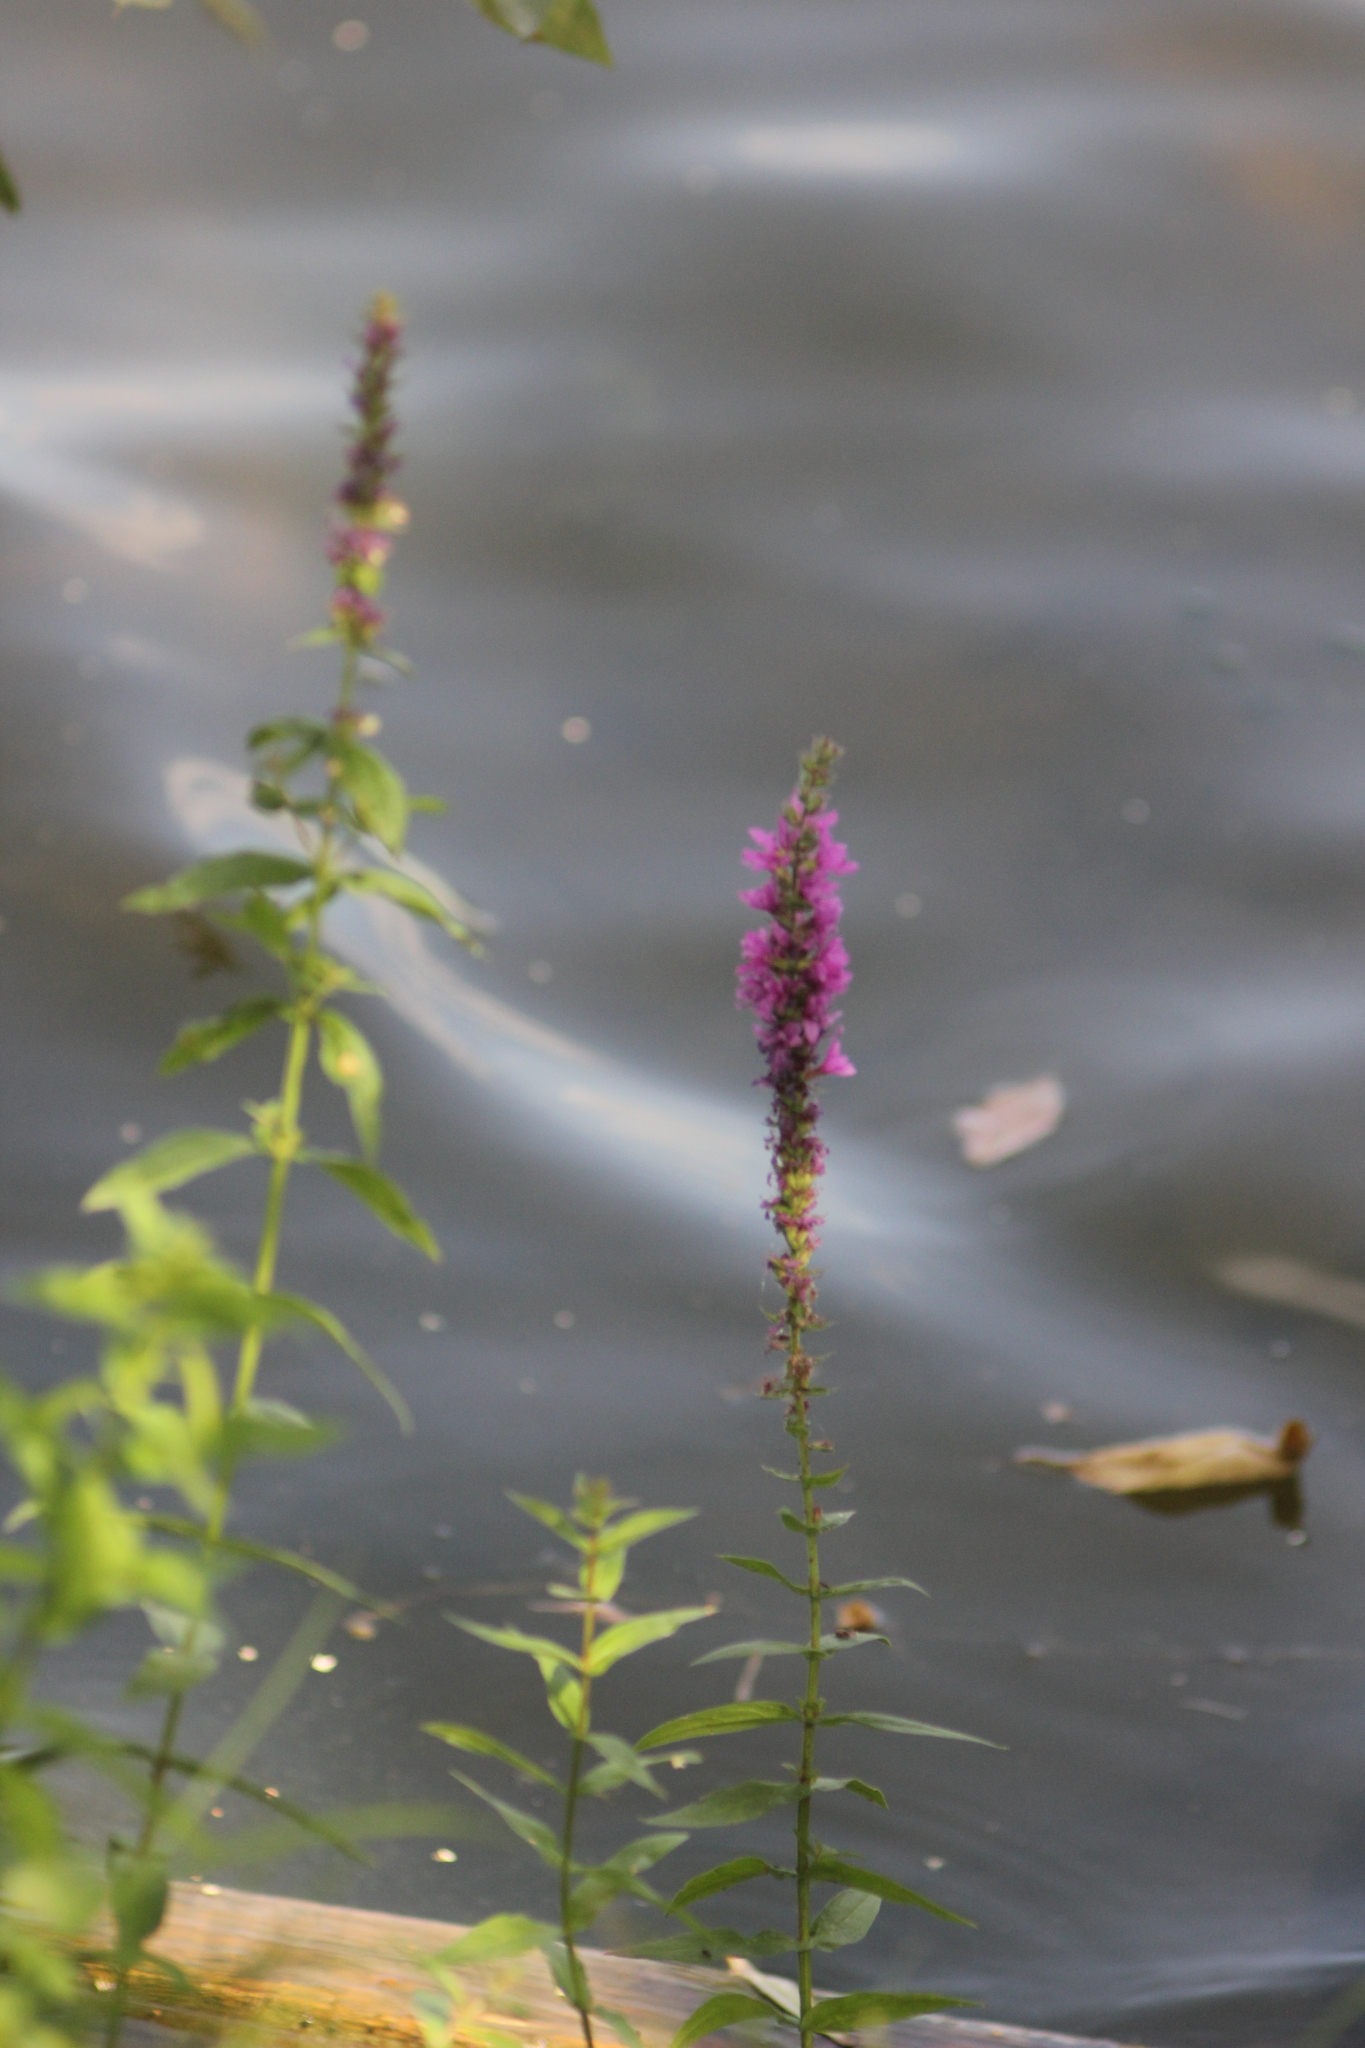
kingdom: Plantae
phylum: Tracheophyta
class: Magnoliopsida
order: Myrtales
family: Lythraceae
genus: Lythrum
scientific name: Lythrum salicaria
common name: Purple loosestrife
